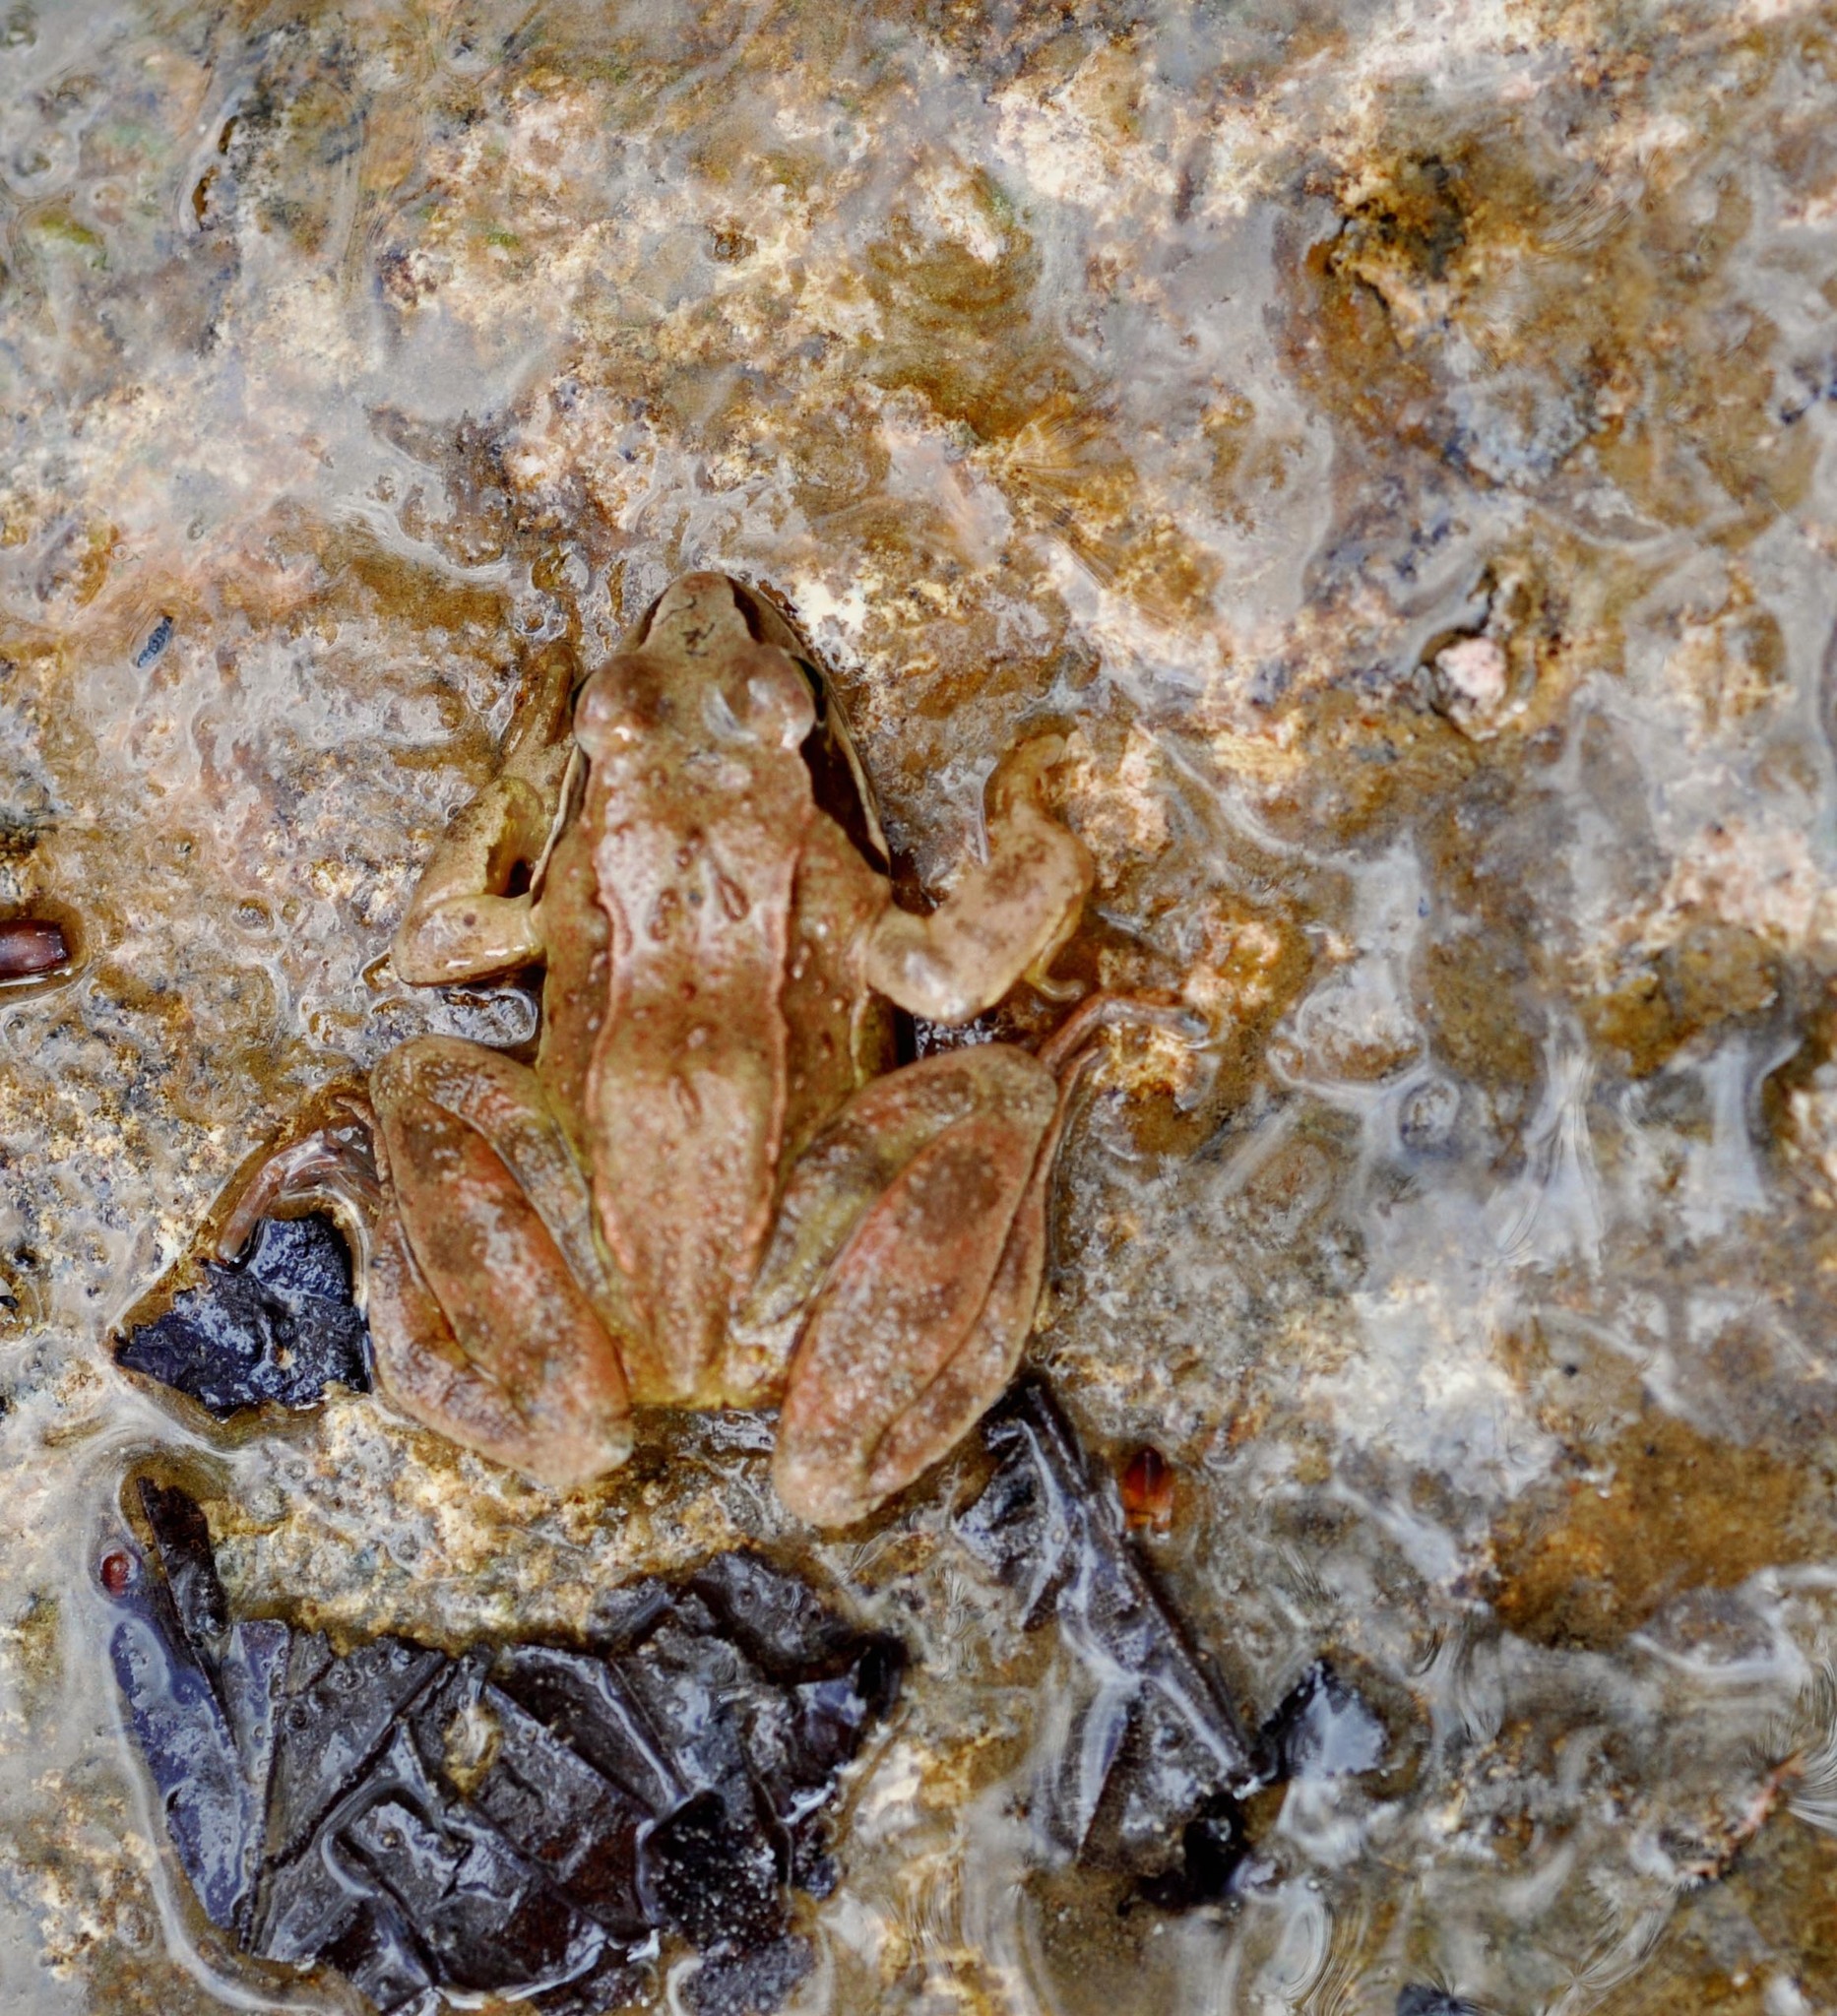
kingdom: Animalia
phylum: Chordata
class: Amphibia
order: Anura
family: Ranidae
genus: Rana
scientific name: Rana temporaria
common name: Common frog
